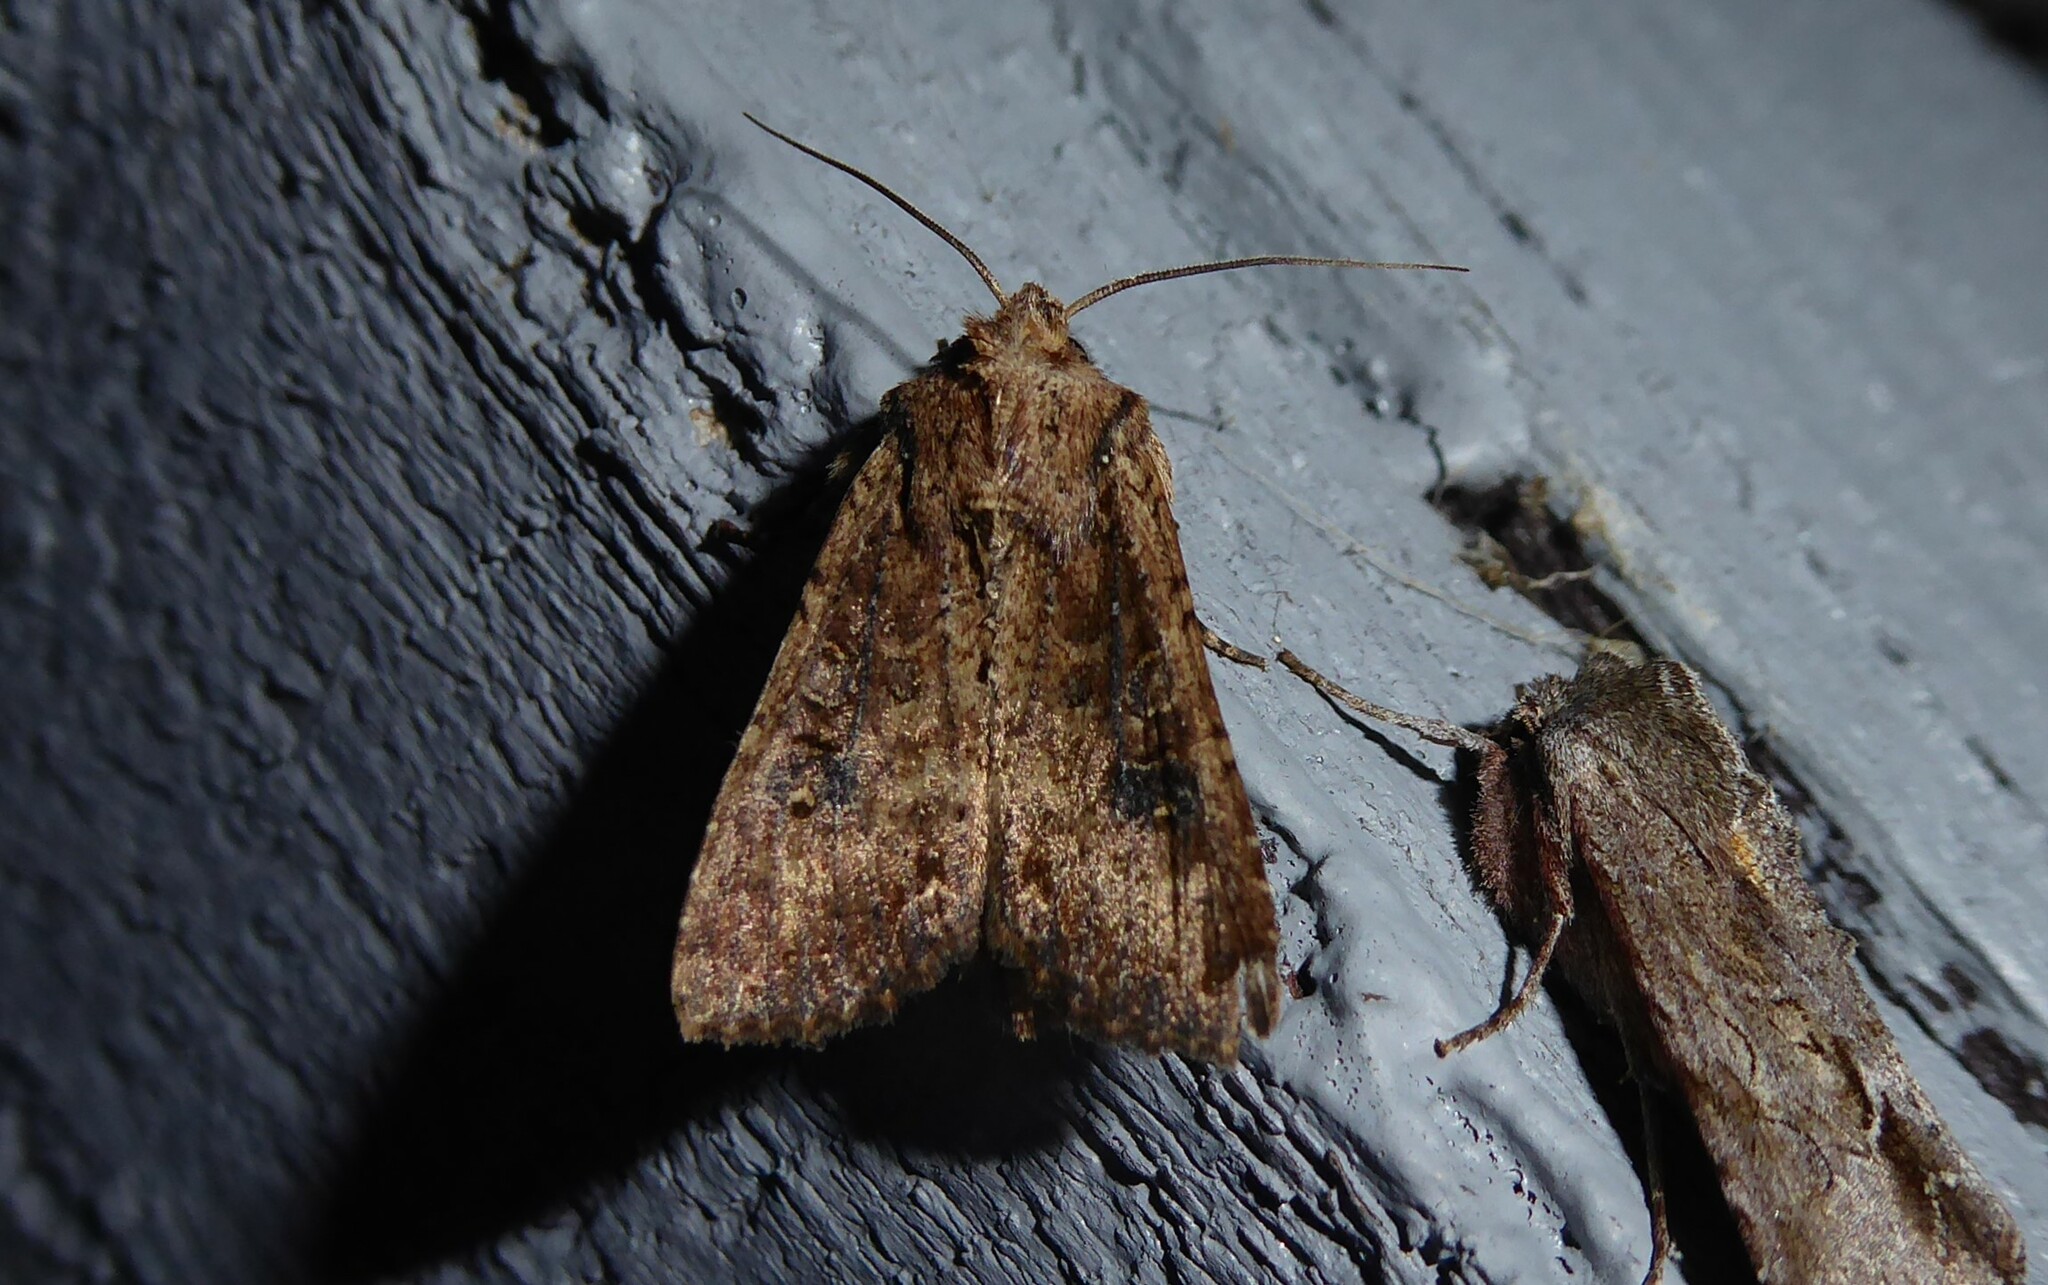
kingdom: Animalia
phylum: Arthropoda
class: Insecta
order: Lepidoptera
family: Noctuidae
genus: Ichneutica
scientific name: Ichneutica morosa
